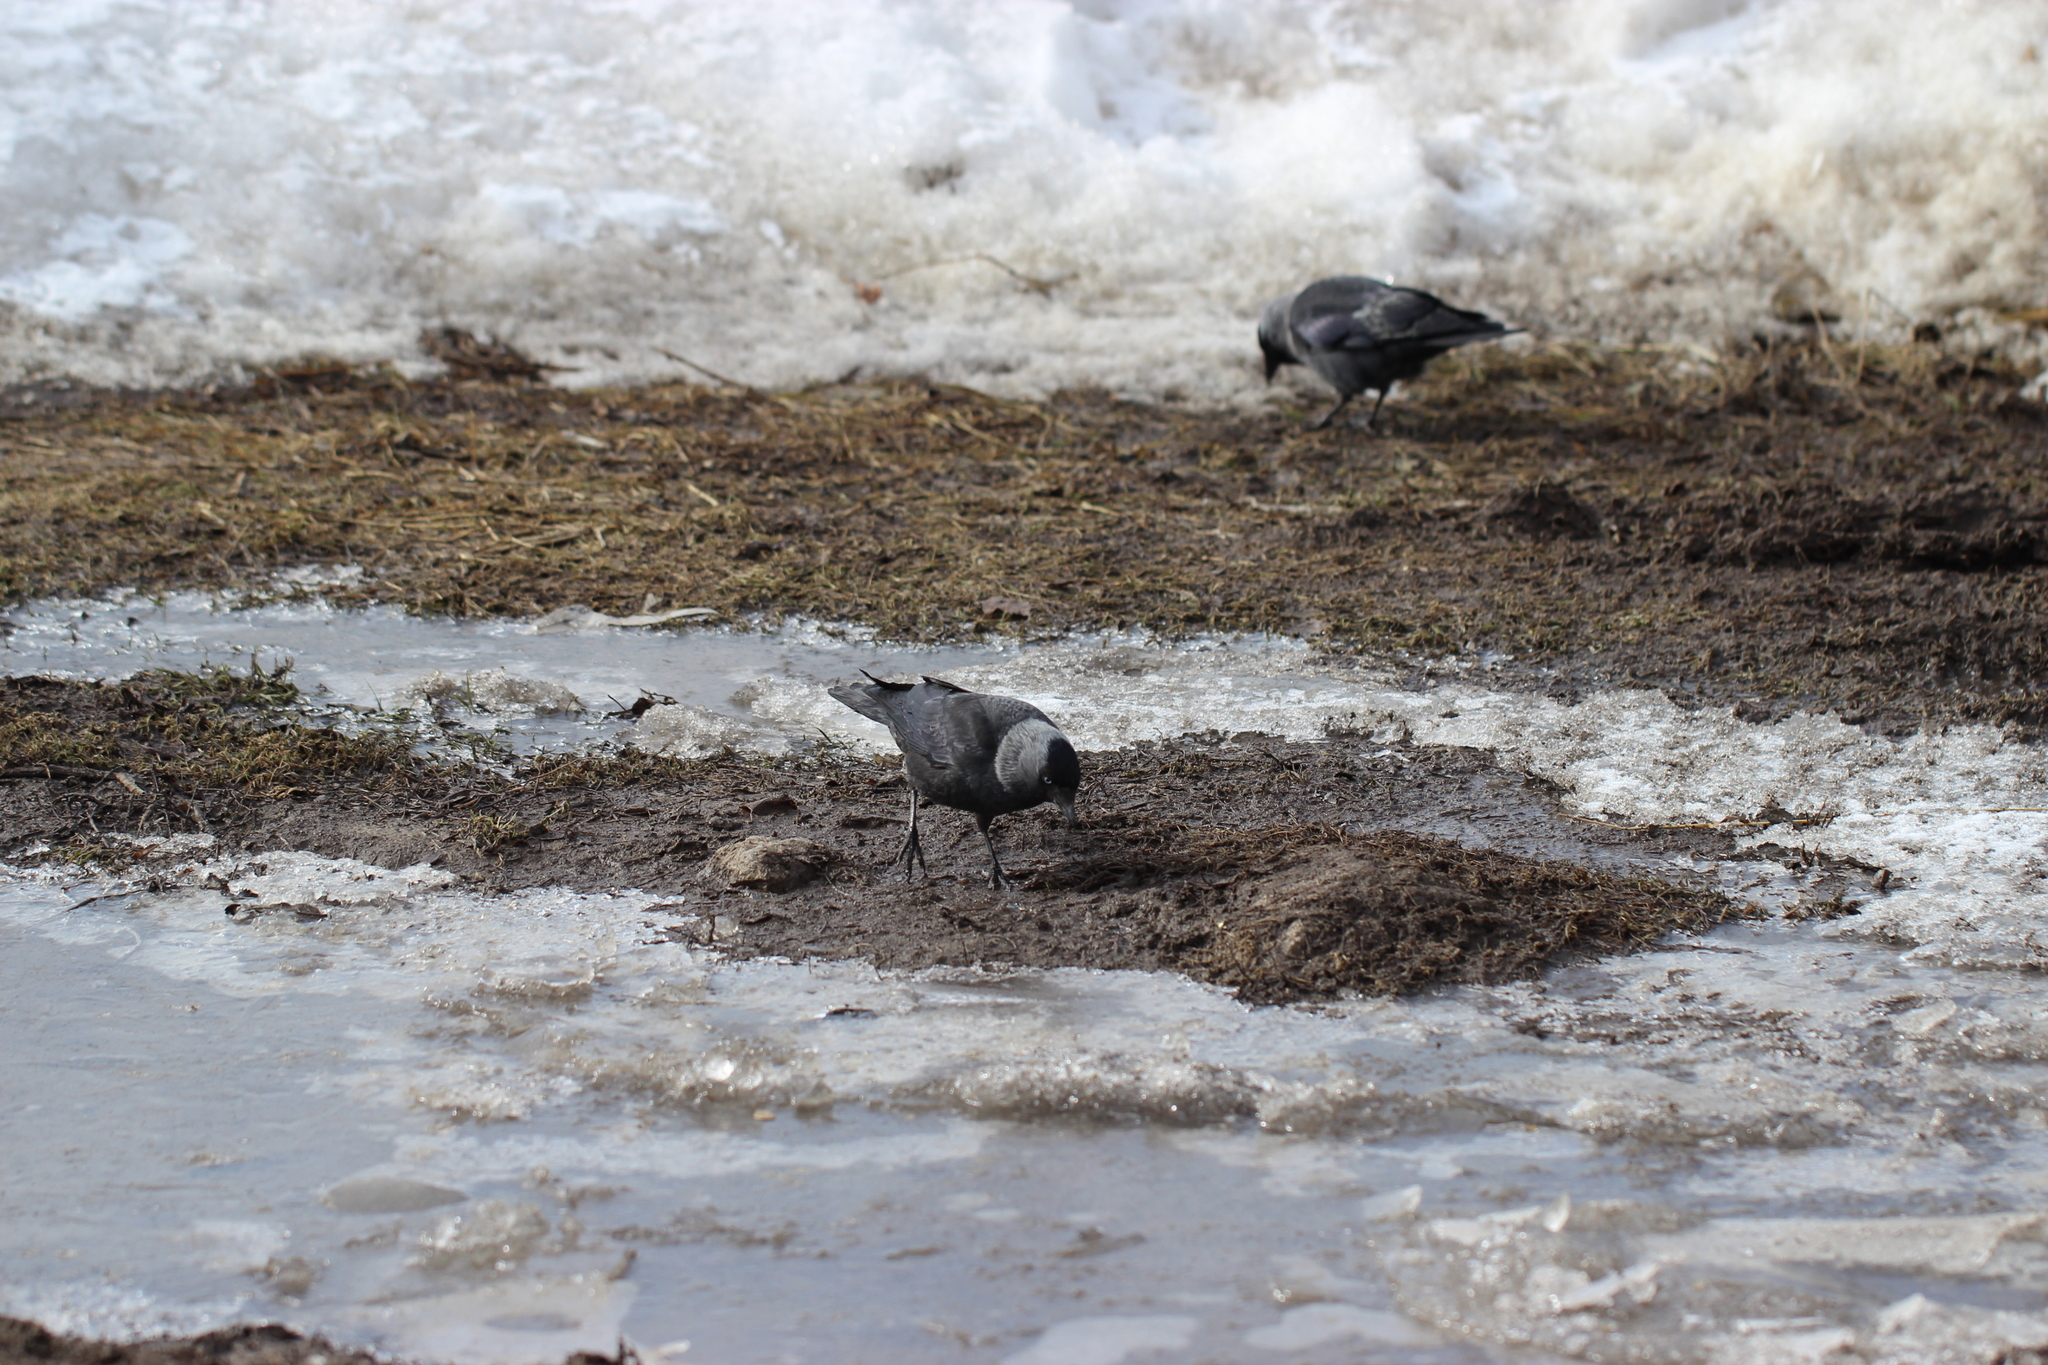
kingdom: Animalia
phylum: Chordata
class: Aves
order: Passeriformes
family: Corvidae
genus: Coloeus
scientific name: Coloeus monedula
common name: Western jackdaw
